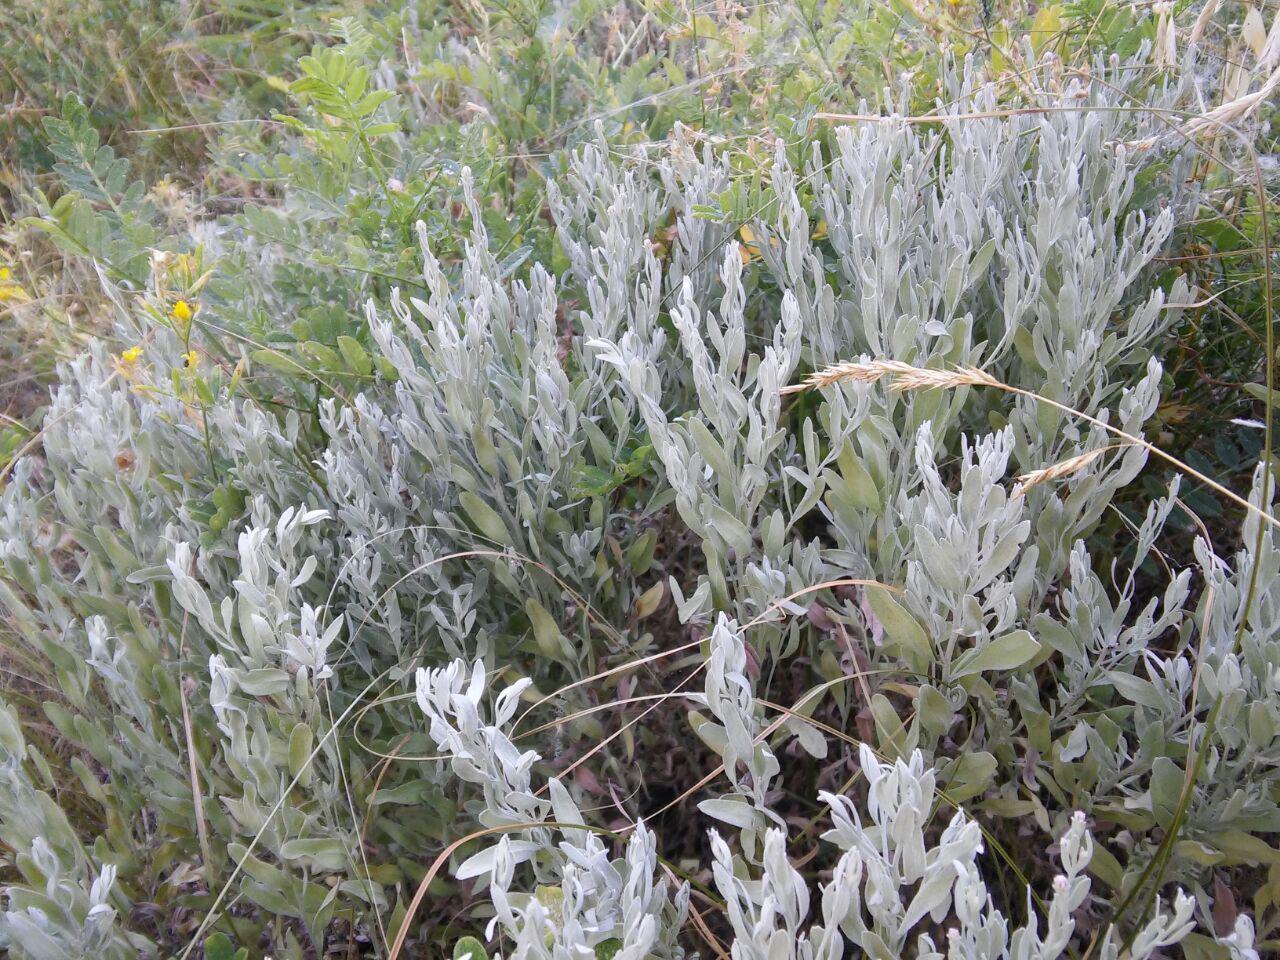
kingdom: Plantae
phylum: Tracheophyta
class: Magnoliopsida
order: Asterales
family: Asteraceae
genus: Galatella
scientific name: Galatella villosa
